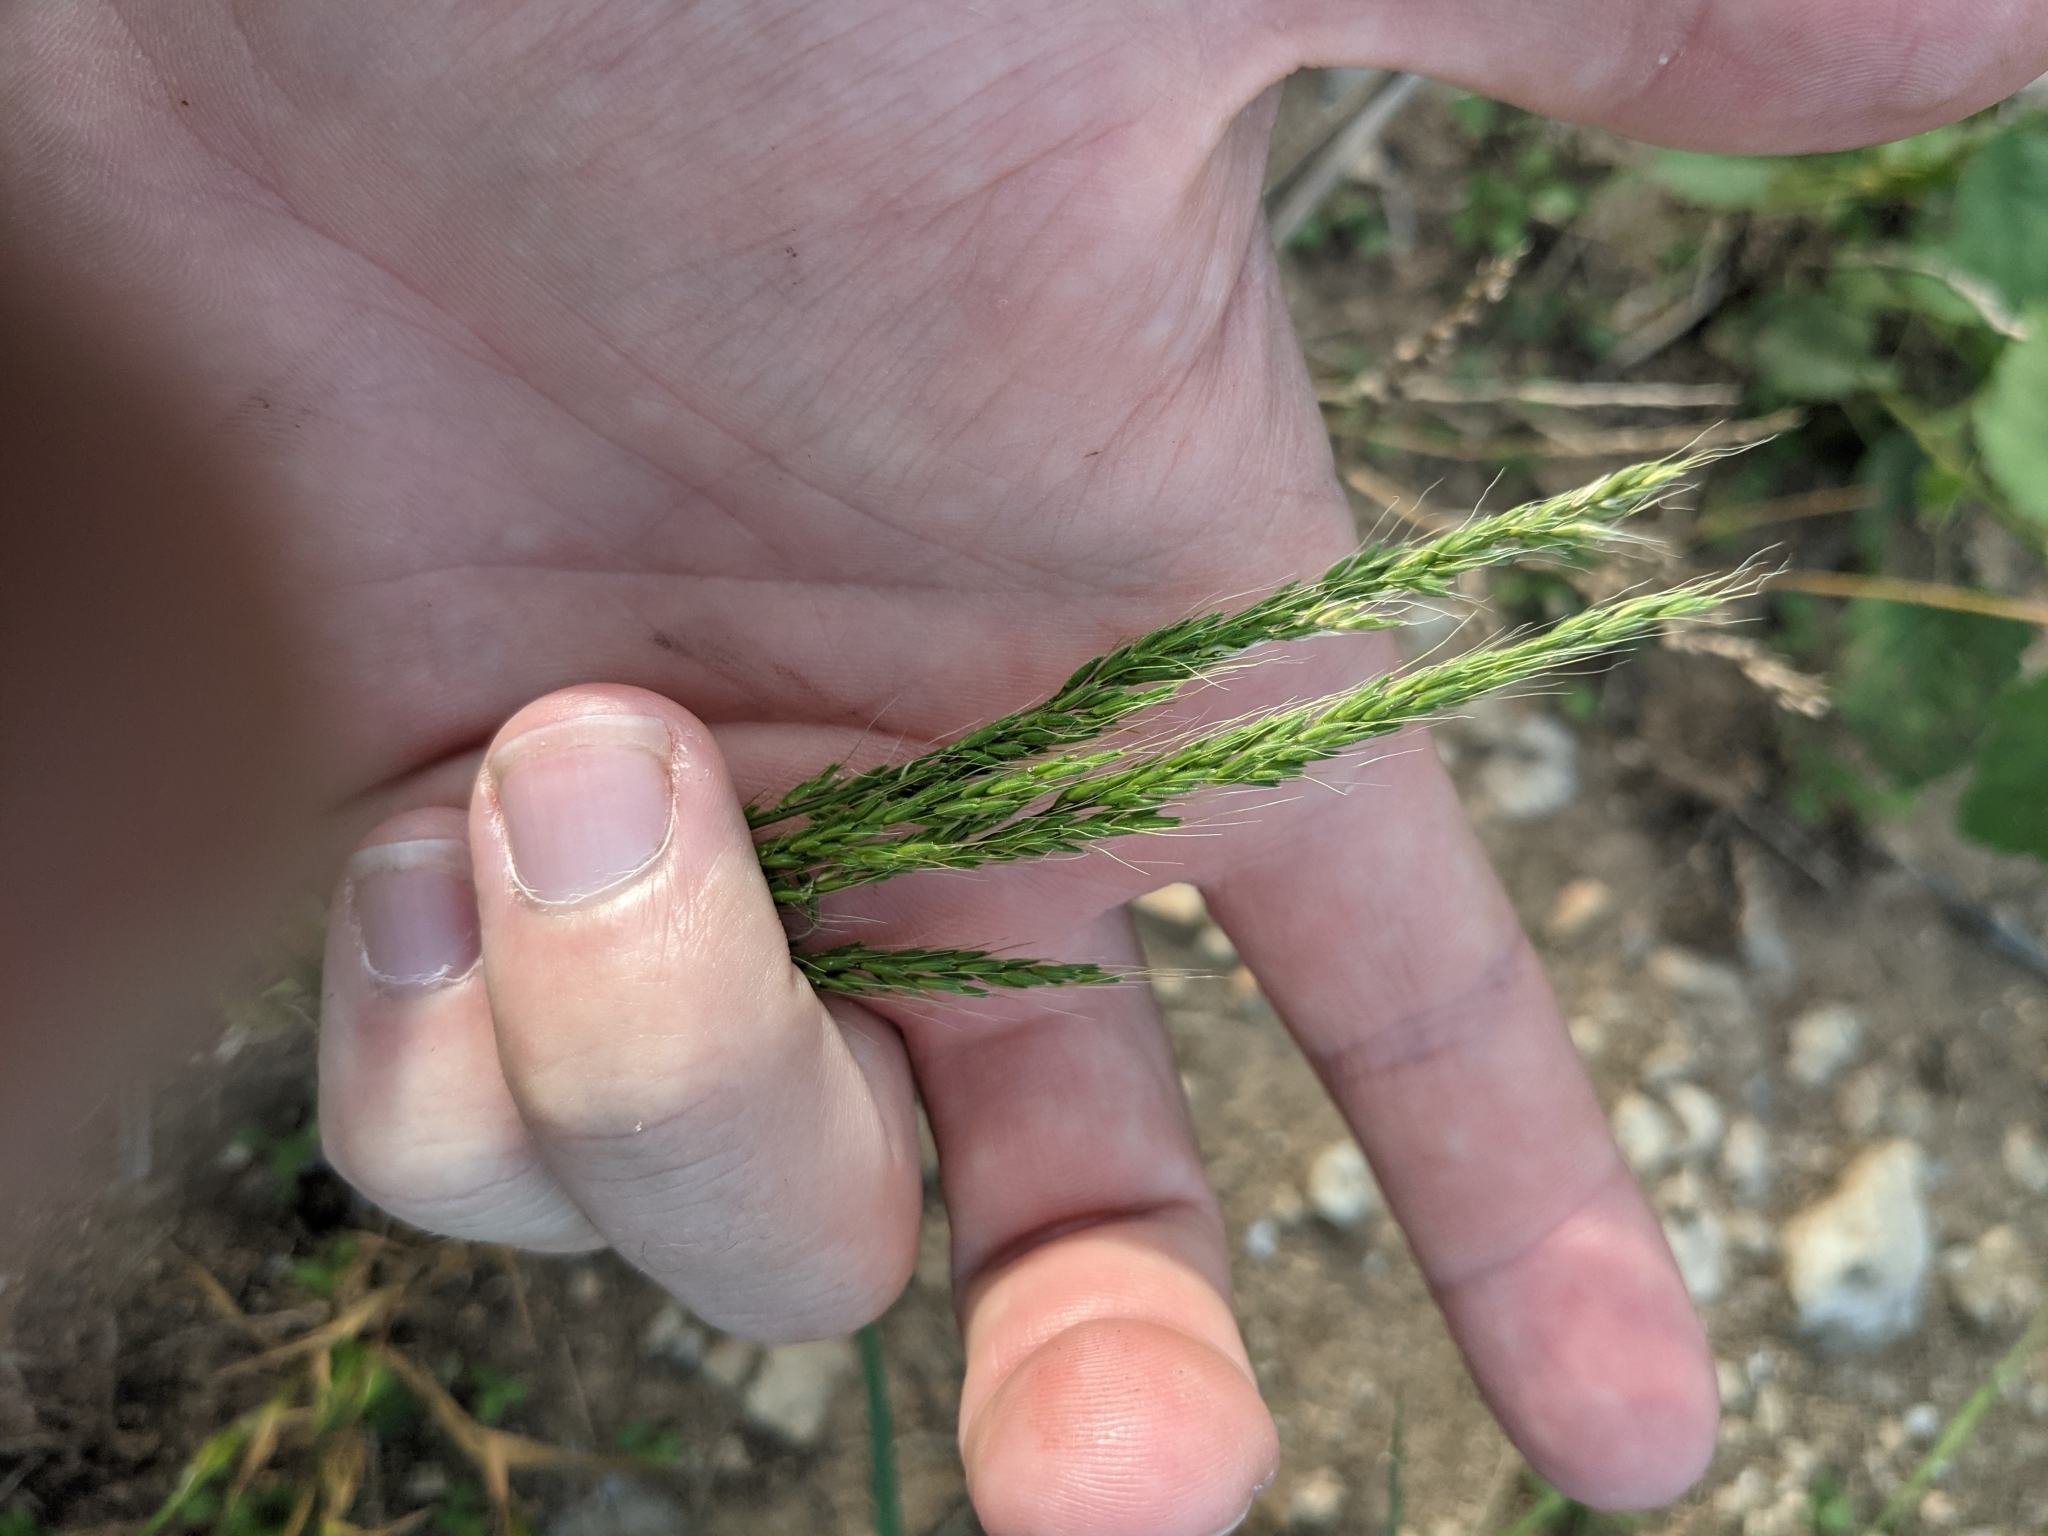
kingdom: Plantae
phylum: Tracheophyta
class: Liliopsida
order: Poales
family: Poaceae
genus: Limnodea
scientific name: Limnodea arkansana
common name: Ozark-grass
